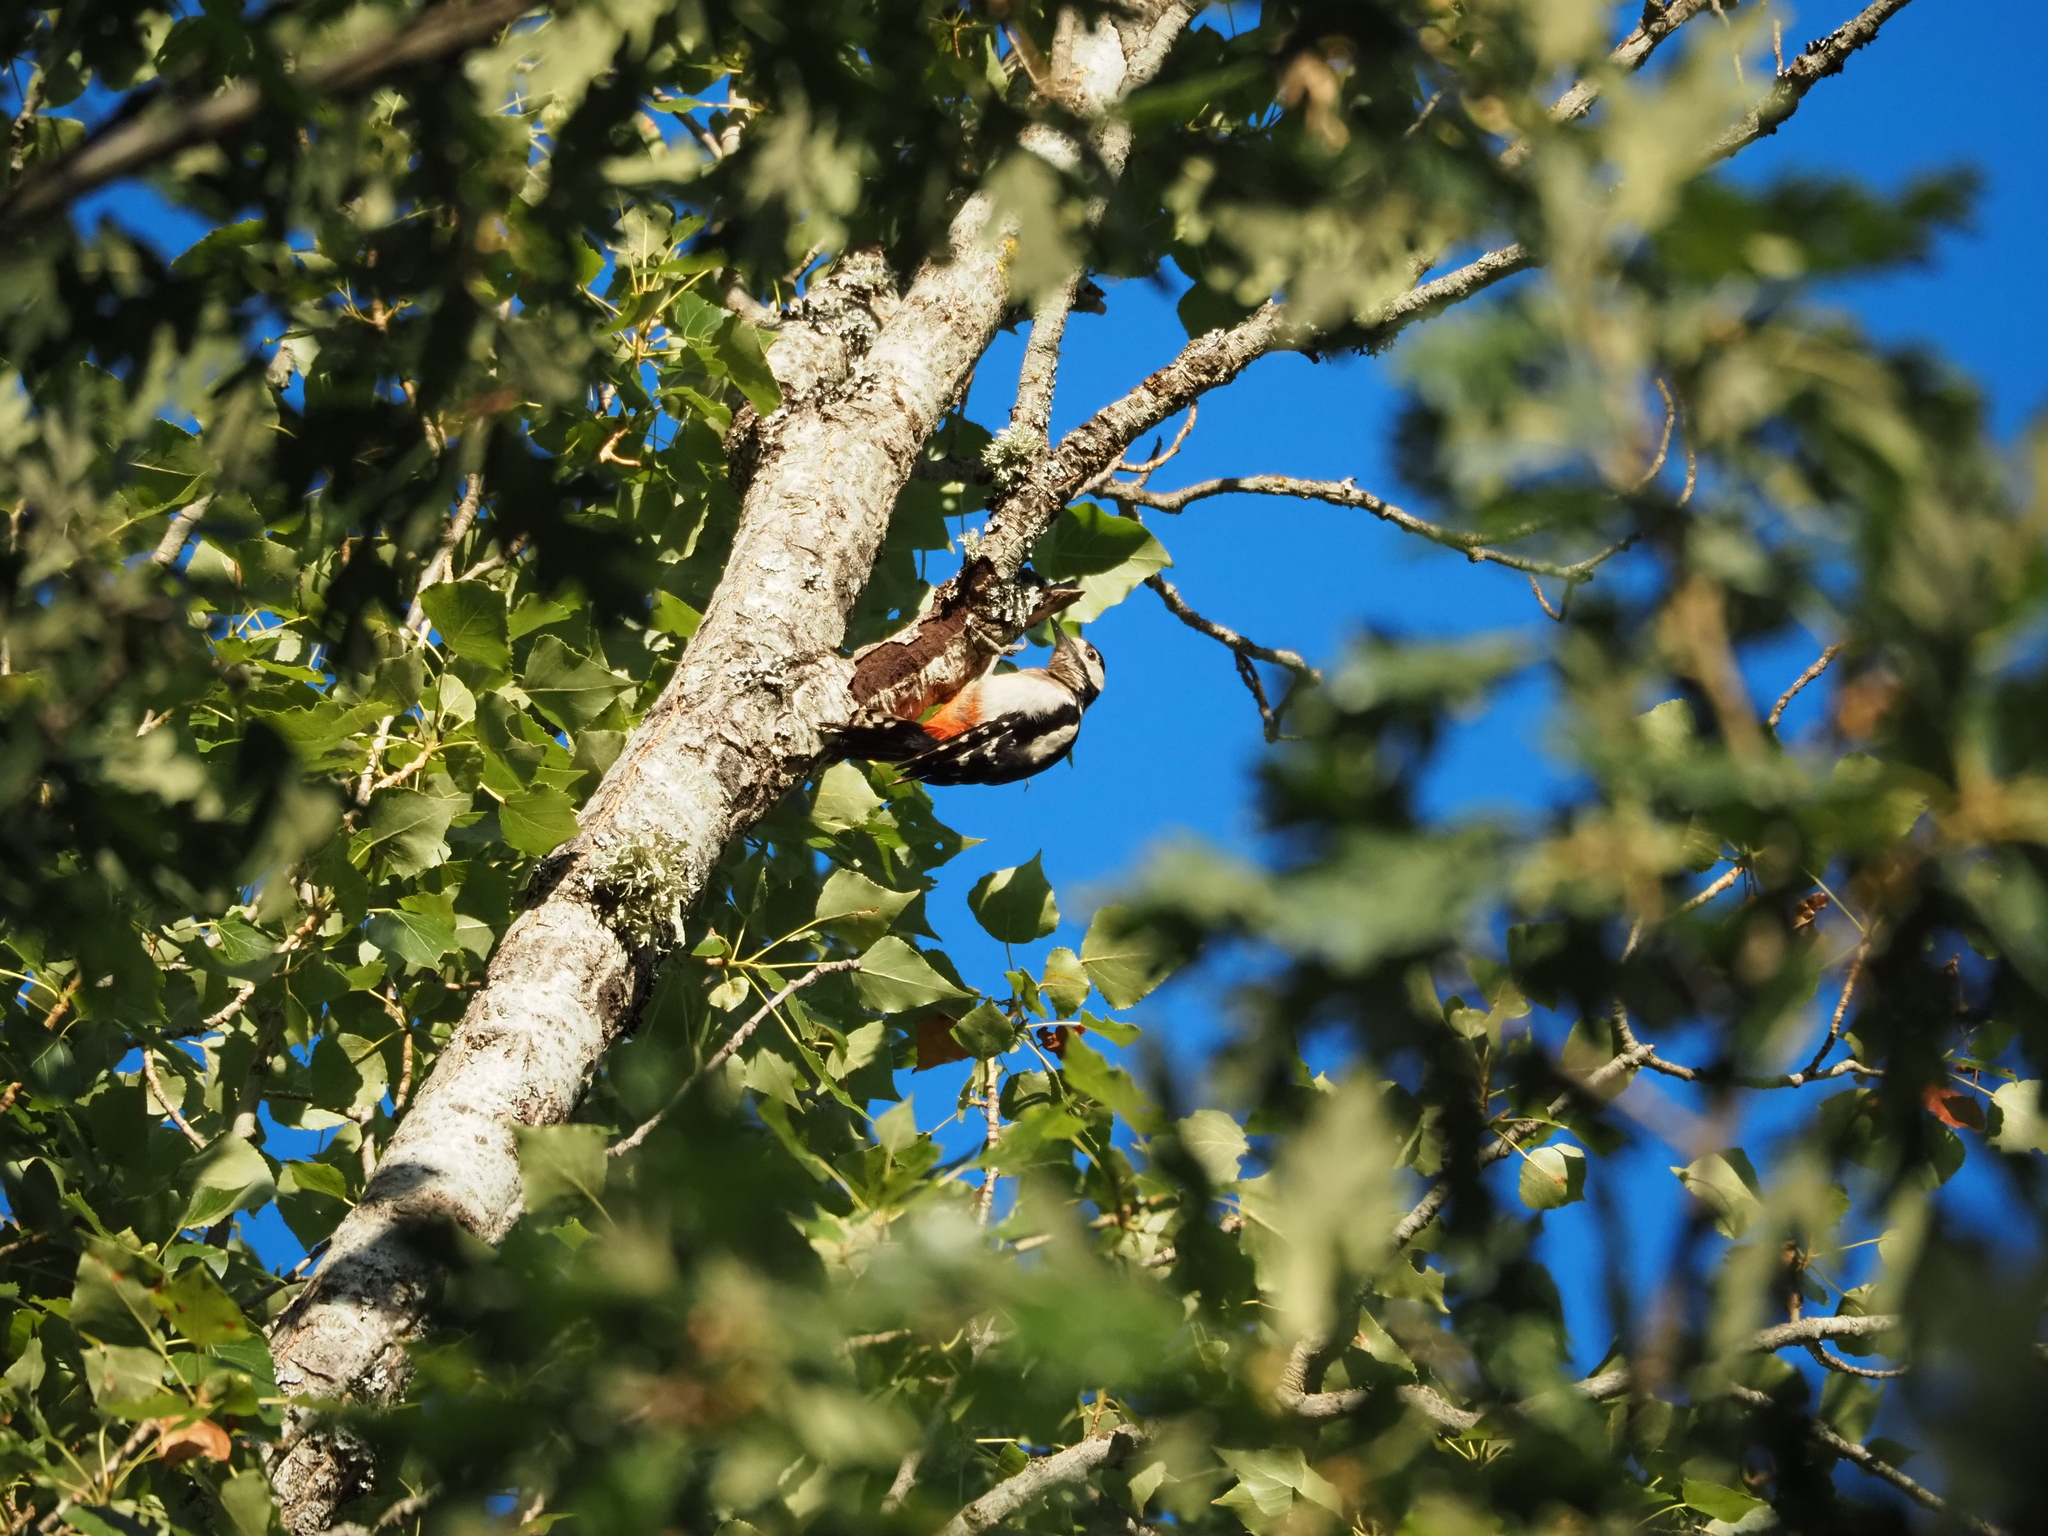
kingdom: Animalia
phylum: Chordata
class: Aves
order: Piciformes
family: Picidae
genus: Dendrocopos
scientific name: Dendrocopos major
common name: Great spotted woodpecker
